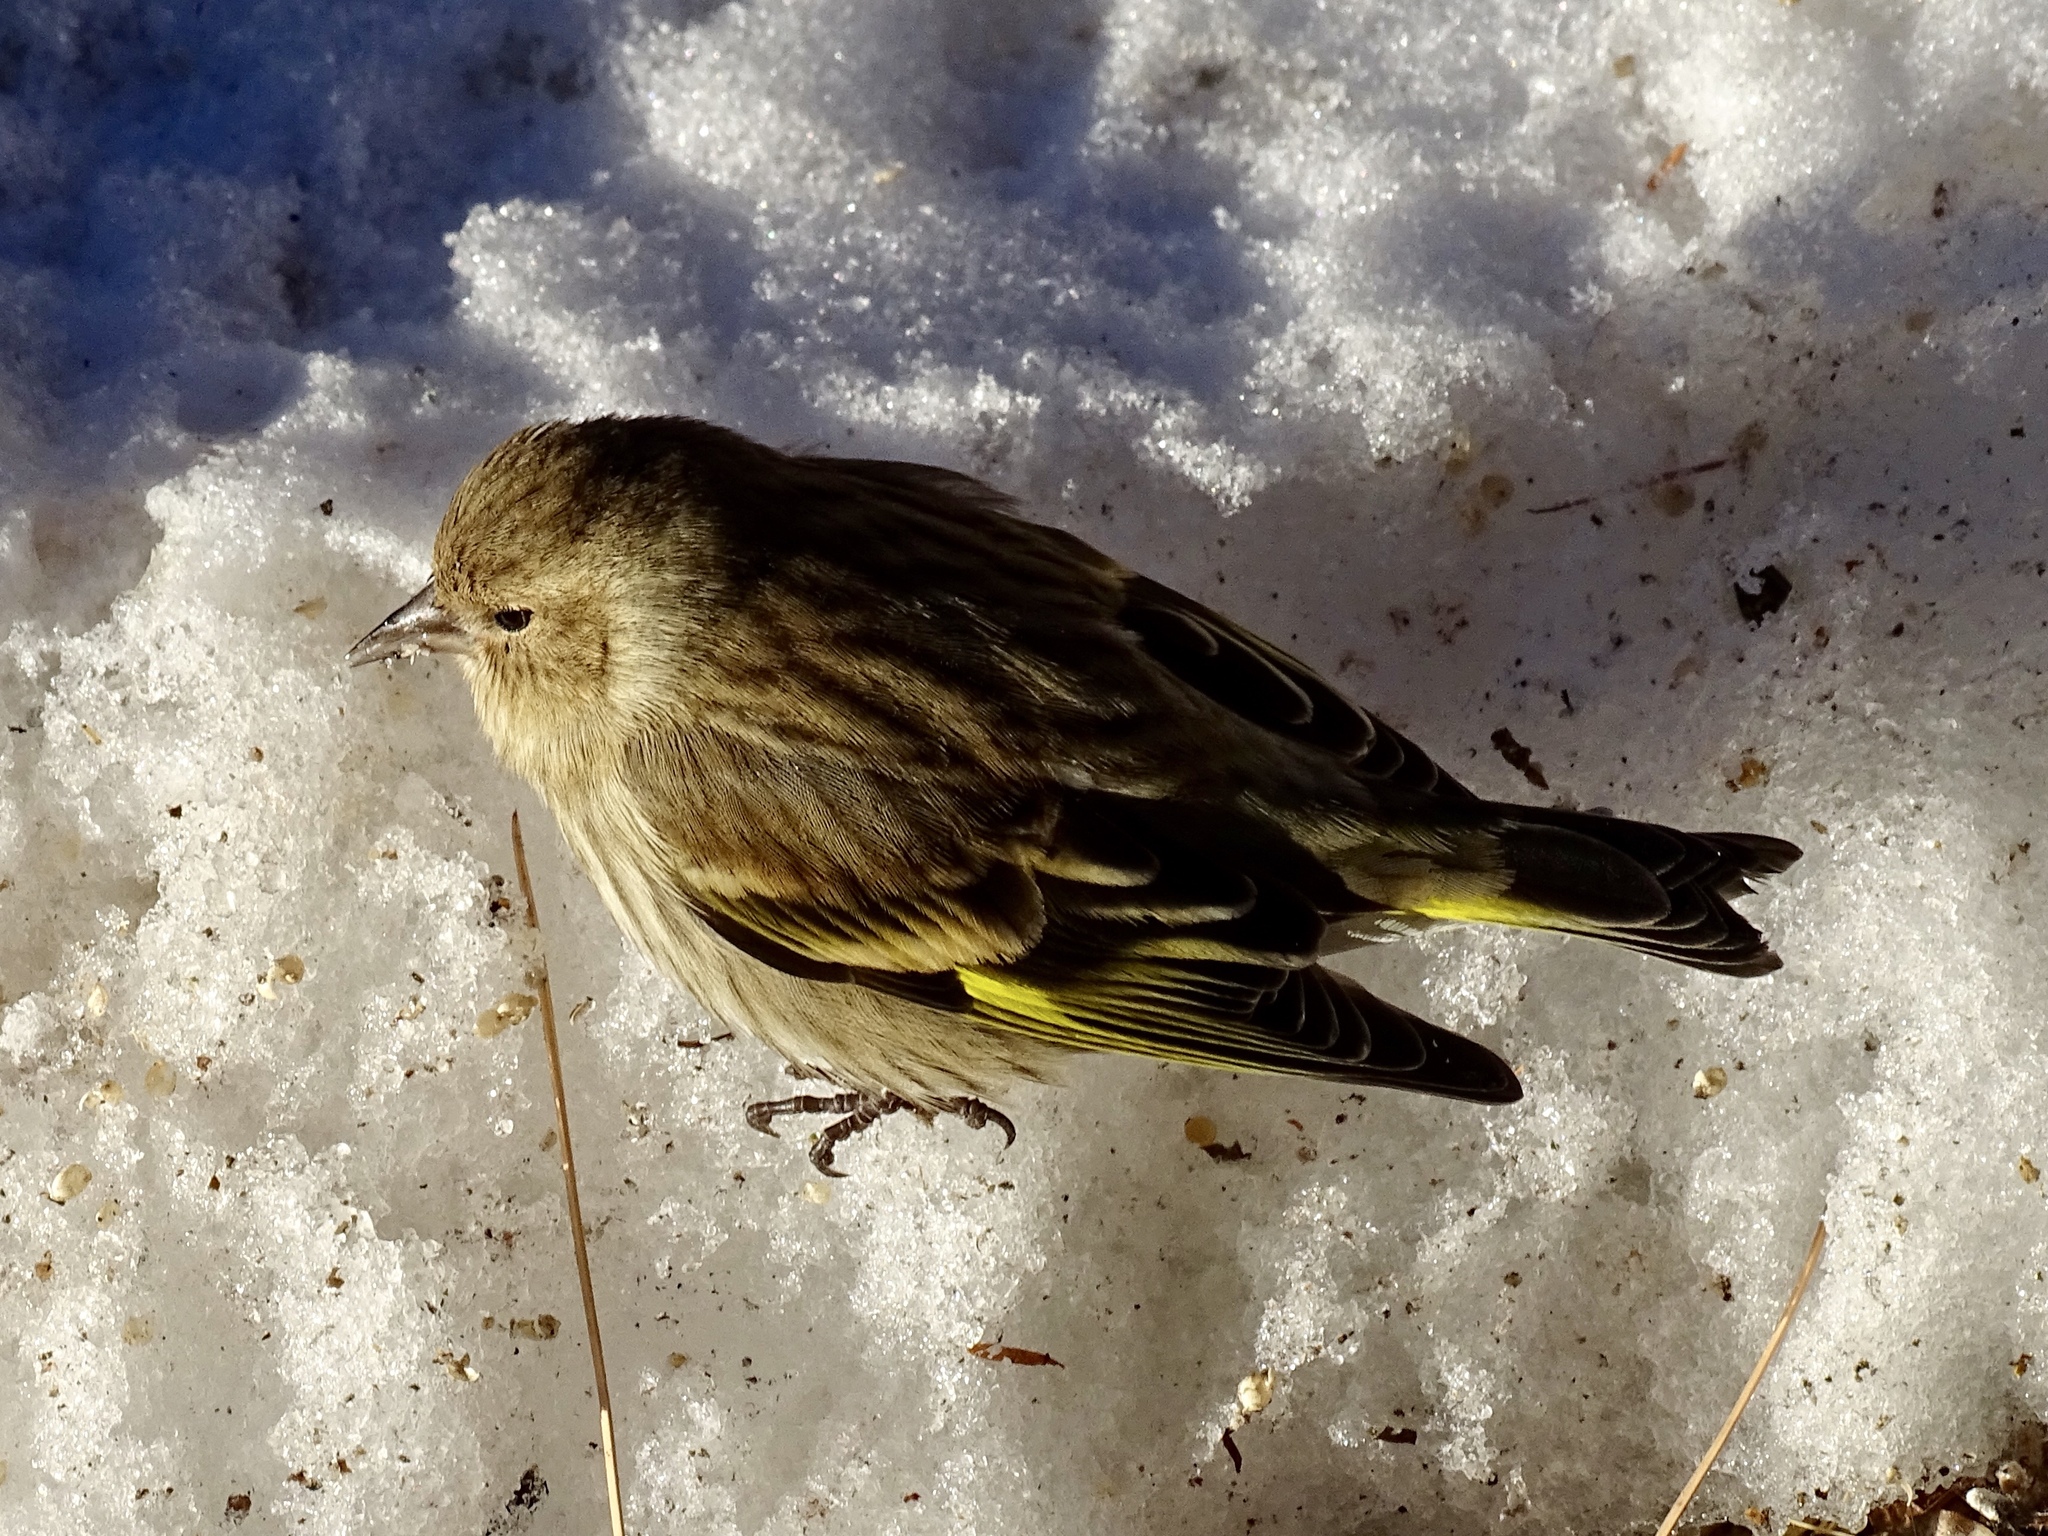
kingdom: Animalia
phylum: Chordata
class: Aves
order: Passeriformes
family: Fringillidae
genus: Spinus
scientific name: Spinus pinus
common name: Pine siskin
